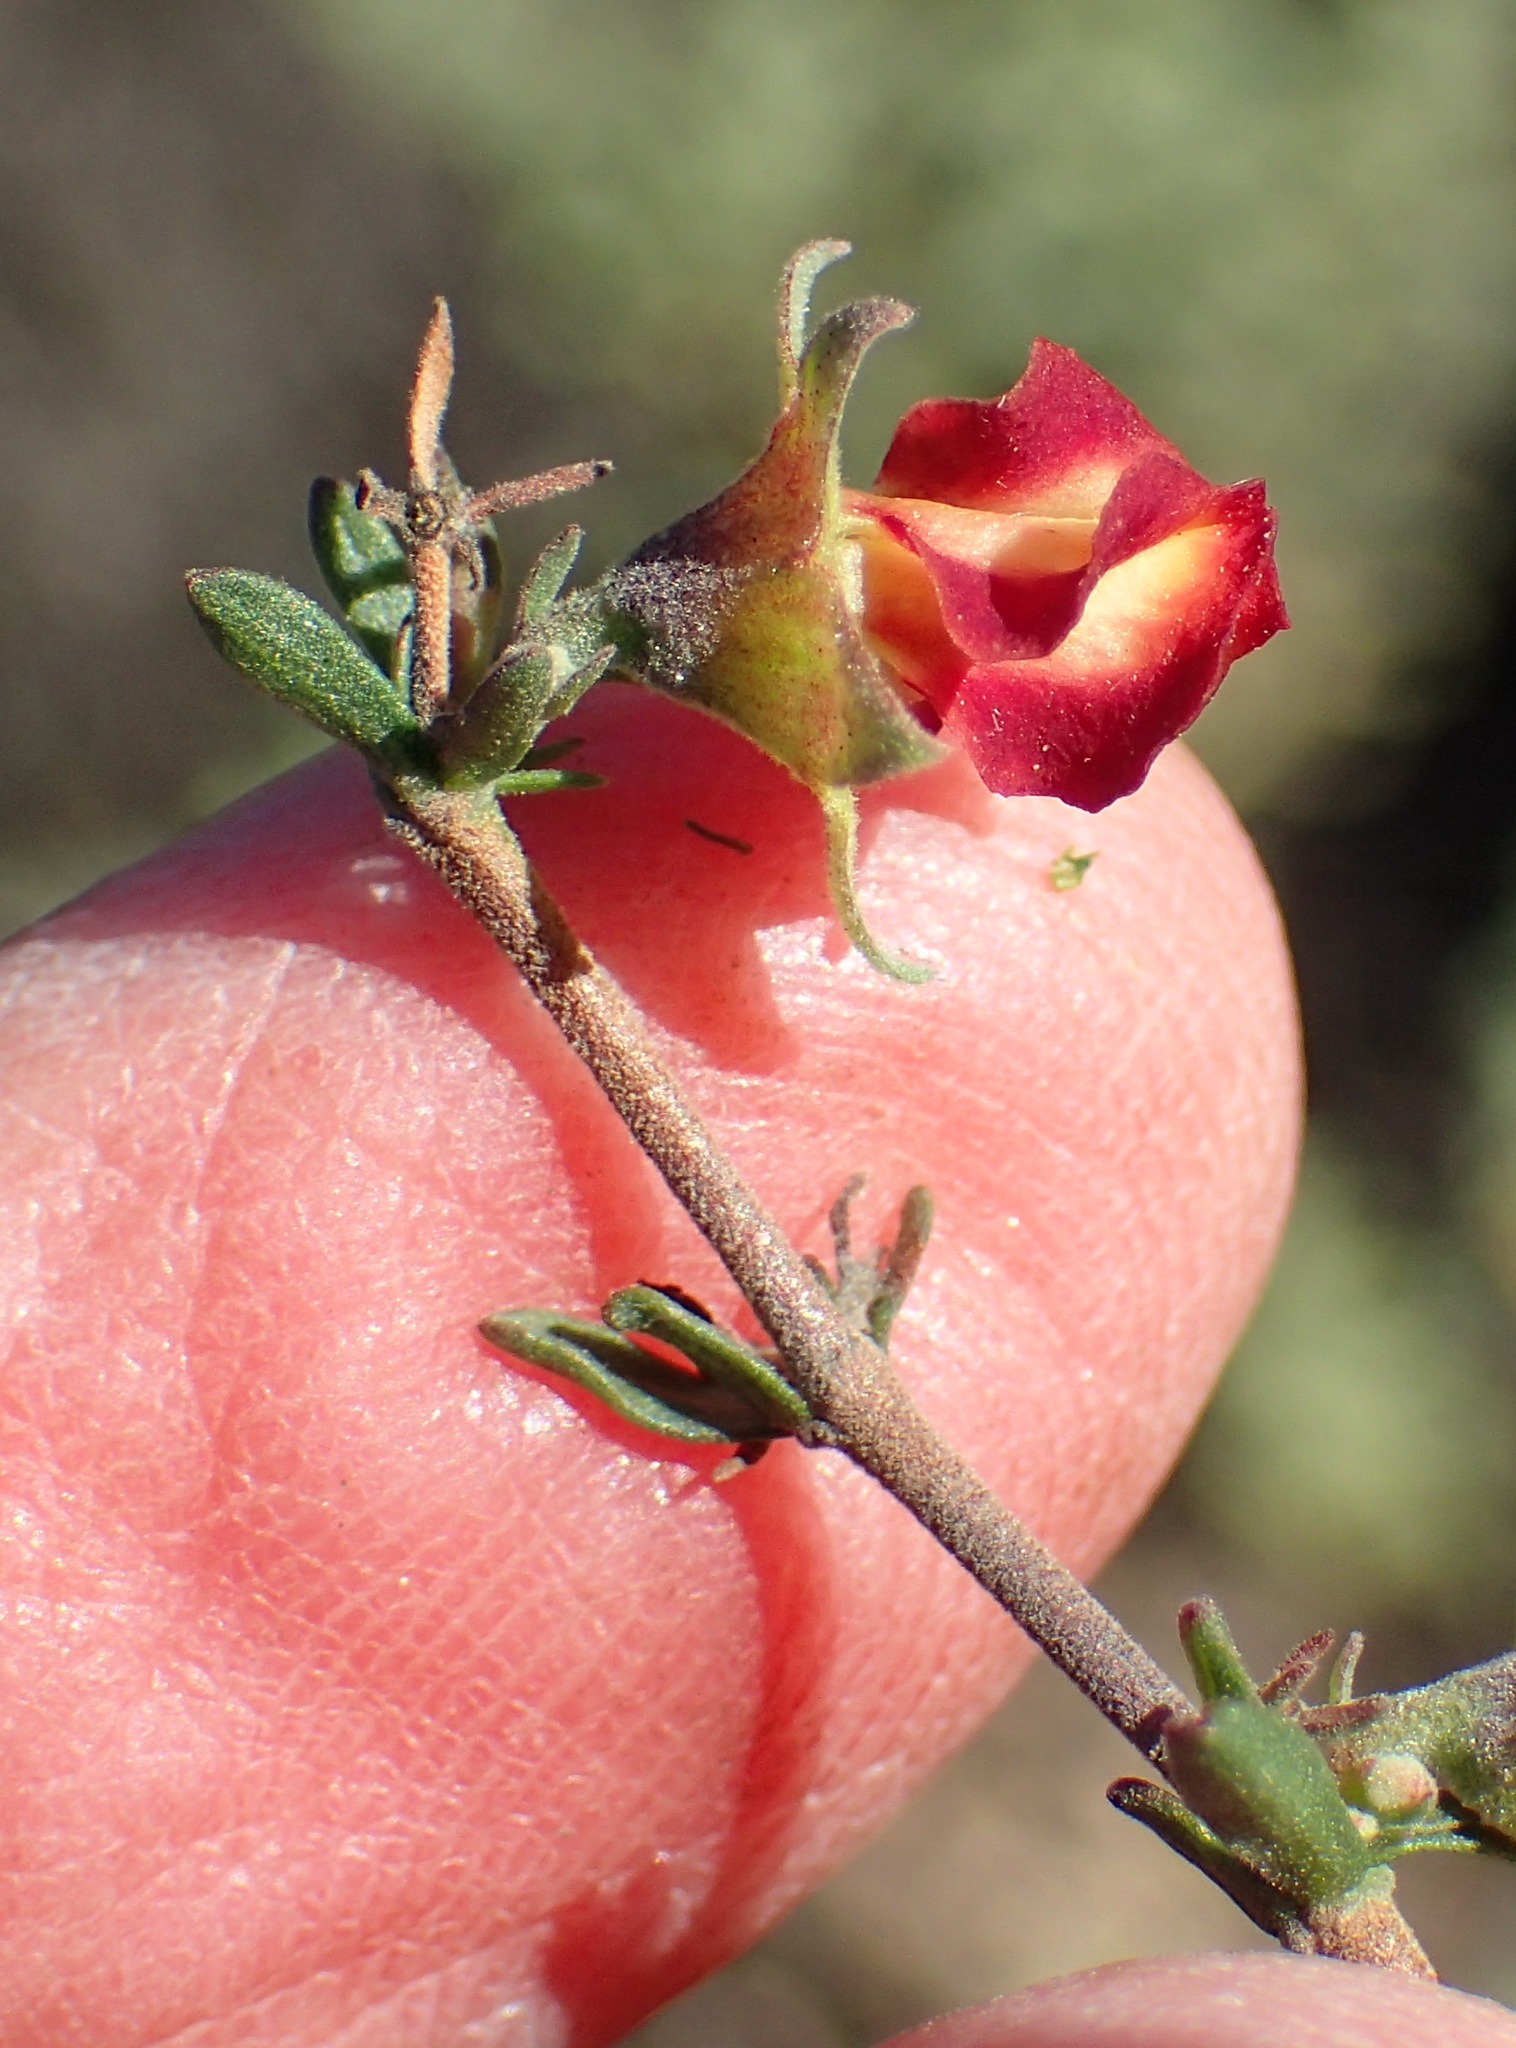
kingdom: Plantae
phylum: Tracheophyta
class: Magnoliopsida
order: Malvales
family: Malvaceae
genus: Hermannia
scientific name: Hermannia filifolia
